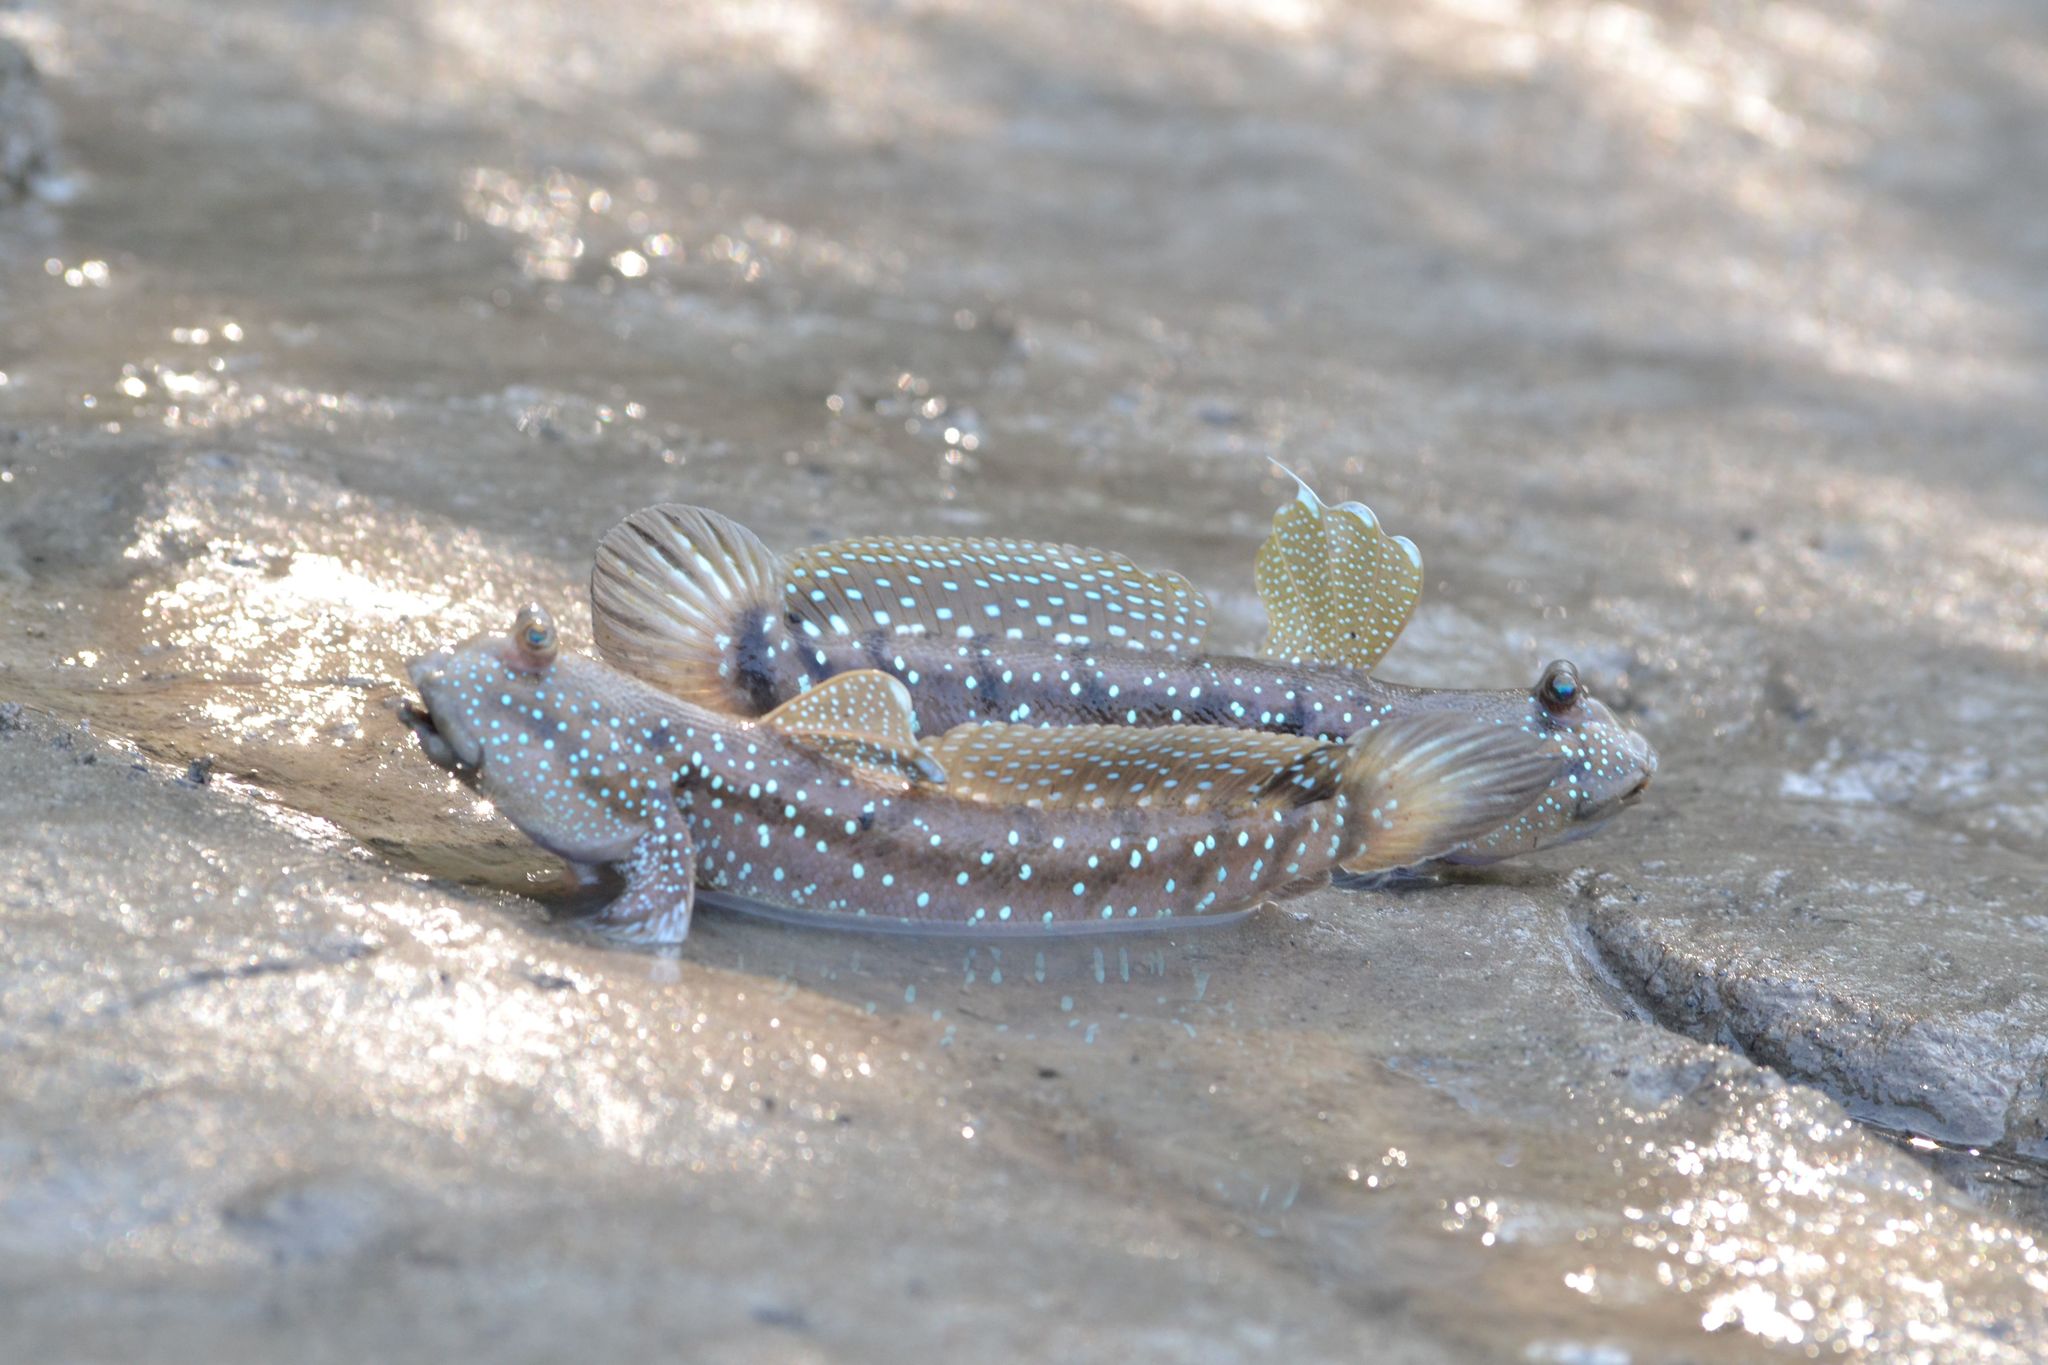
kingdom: Animalia
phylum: Chordata
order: Perciformes
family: Gobiidae
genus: Boleophthalmus
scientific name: Boleophthalmus boddarti
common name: Boddart's goggle-eyed goby
